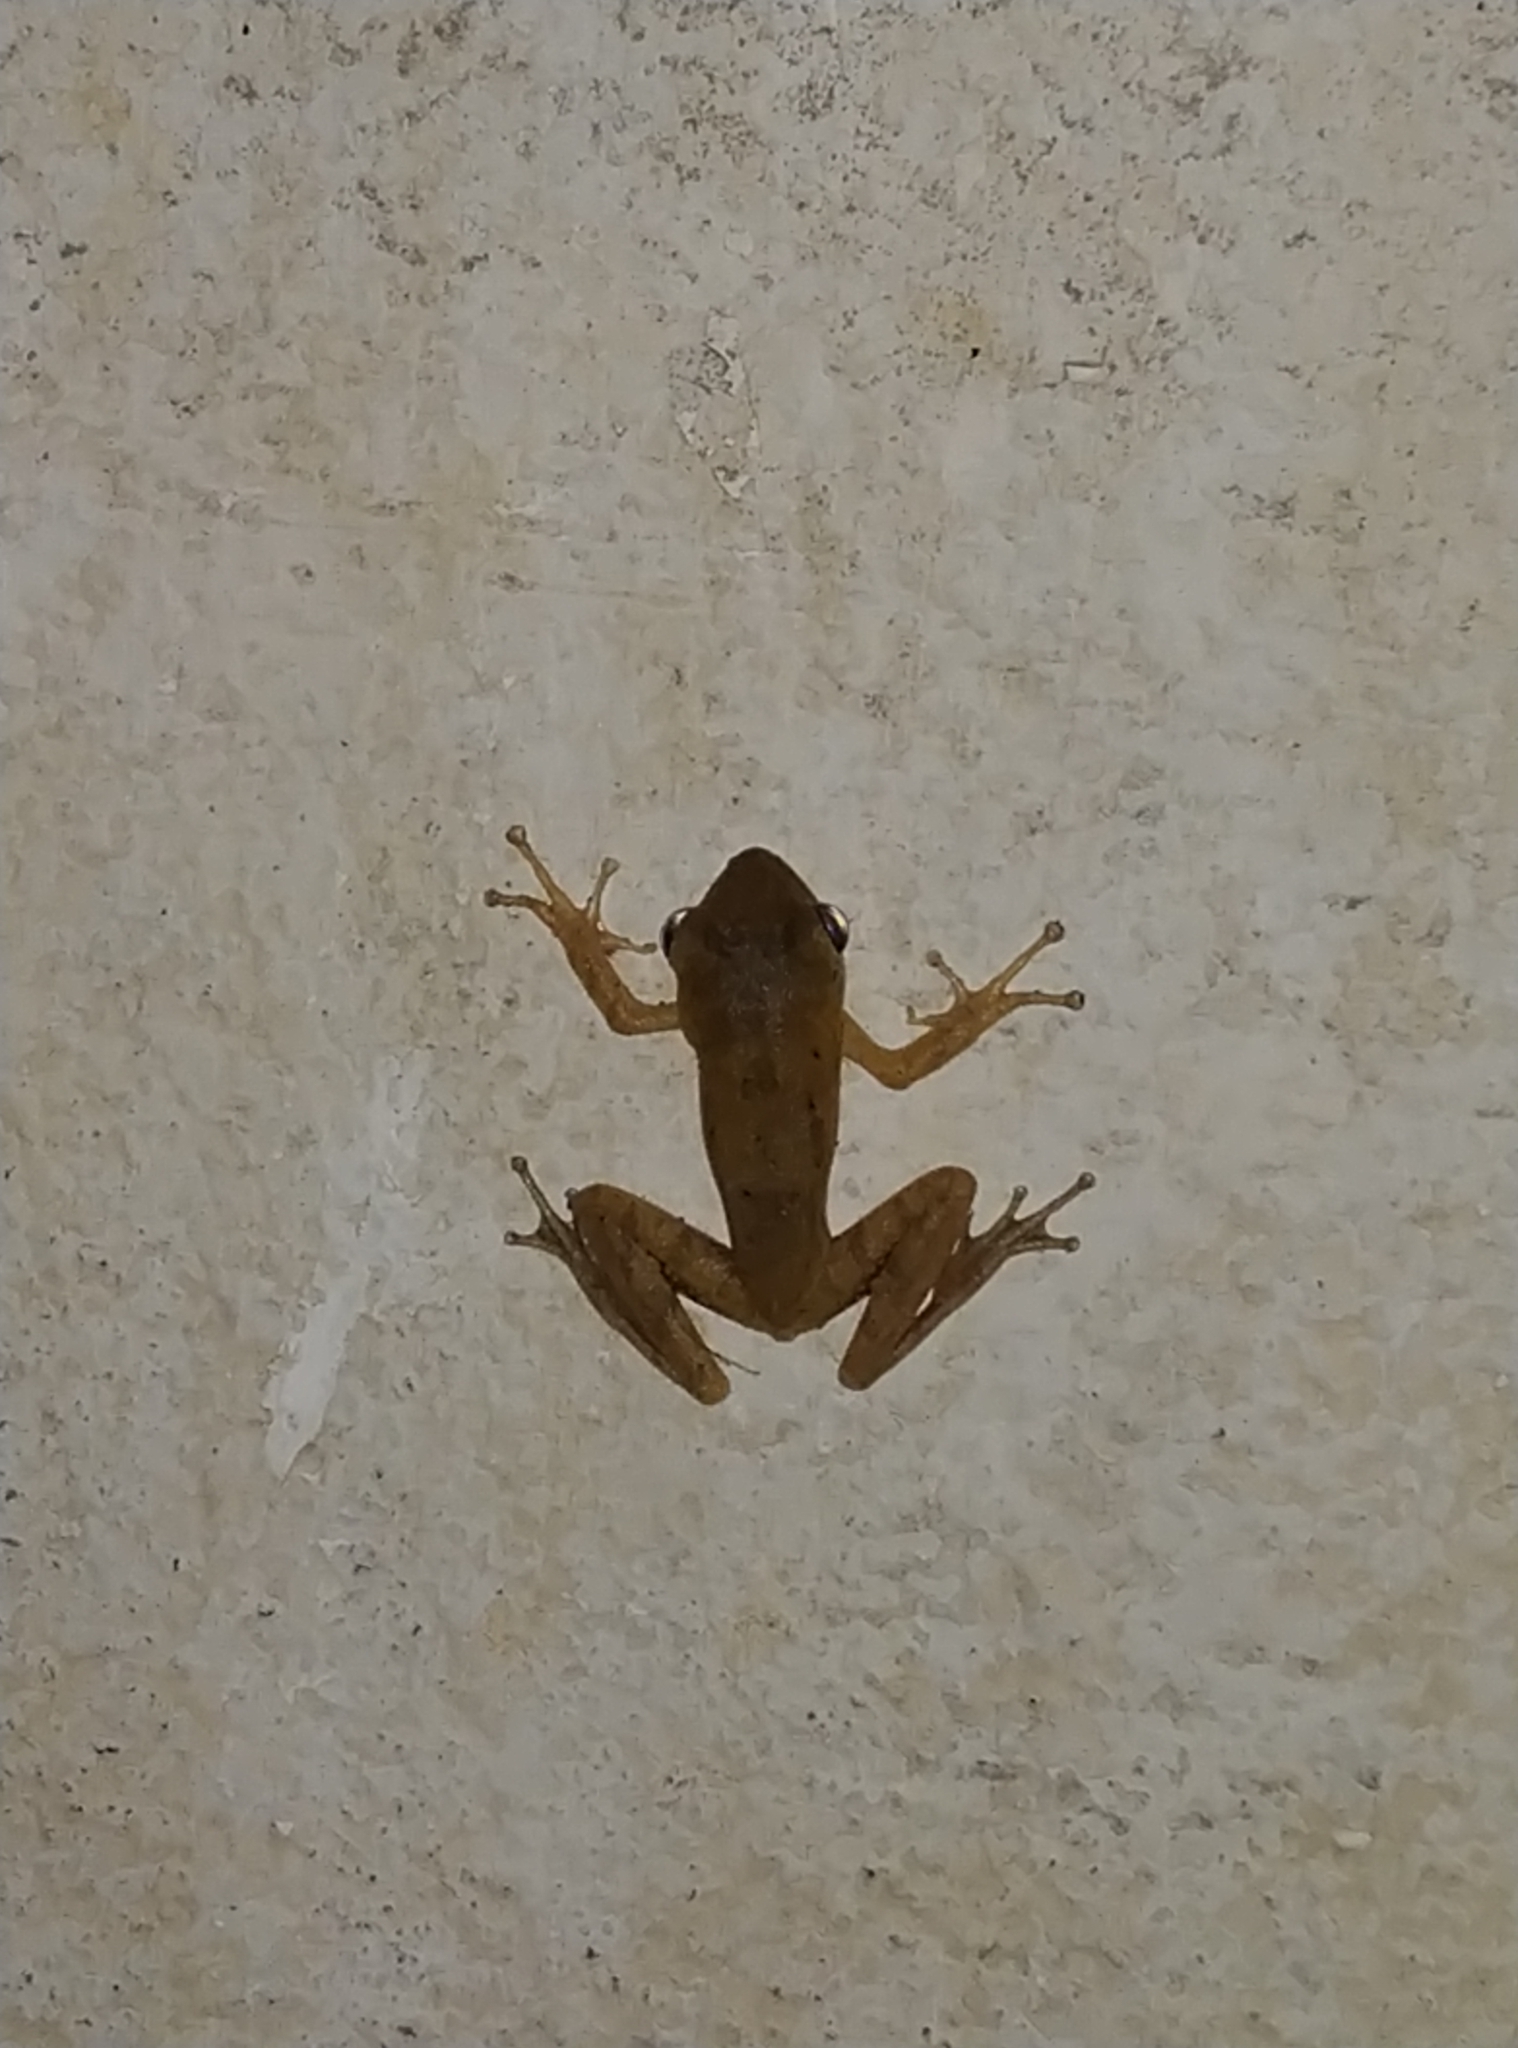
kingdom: Animalia
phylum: Chordata
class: Amphibia
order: Anura
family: Rhacophoridae
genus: Polypedates
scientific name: Polypedates maculatus
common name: Himalayan tree frog
